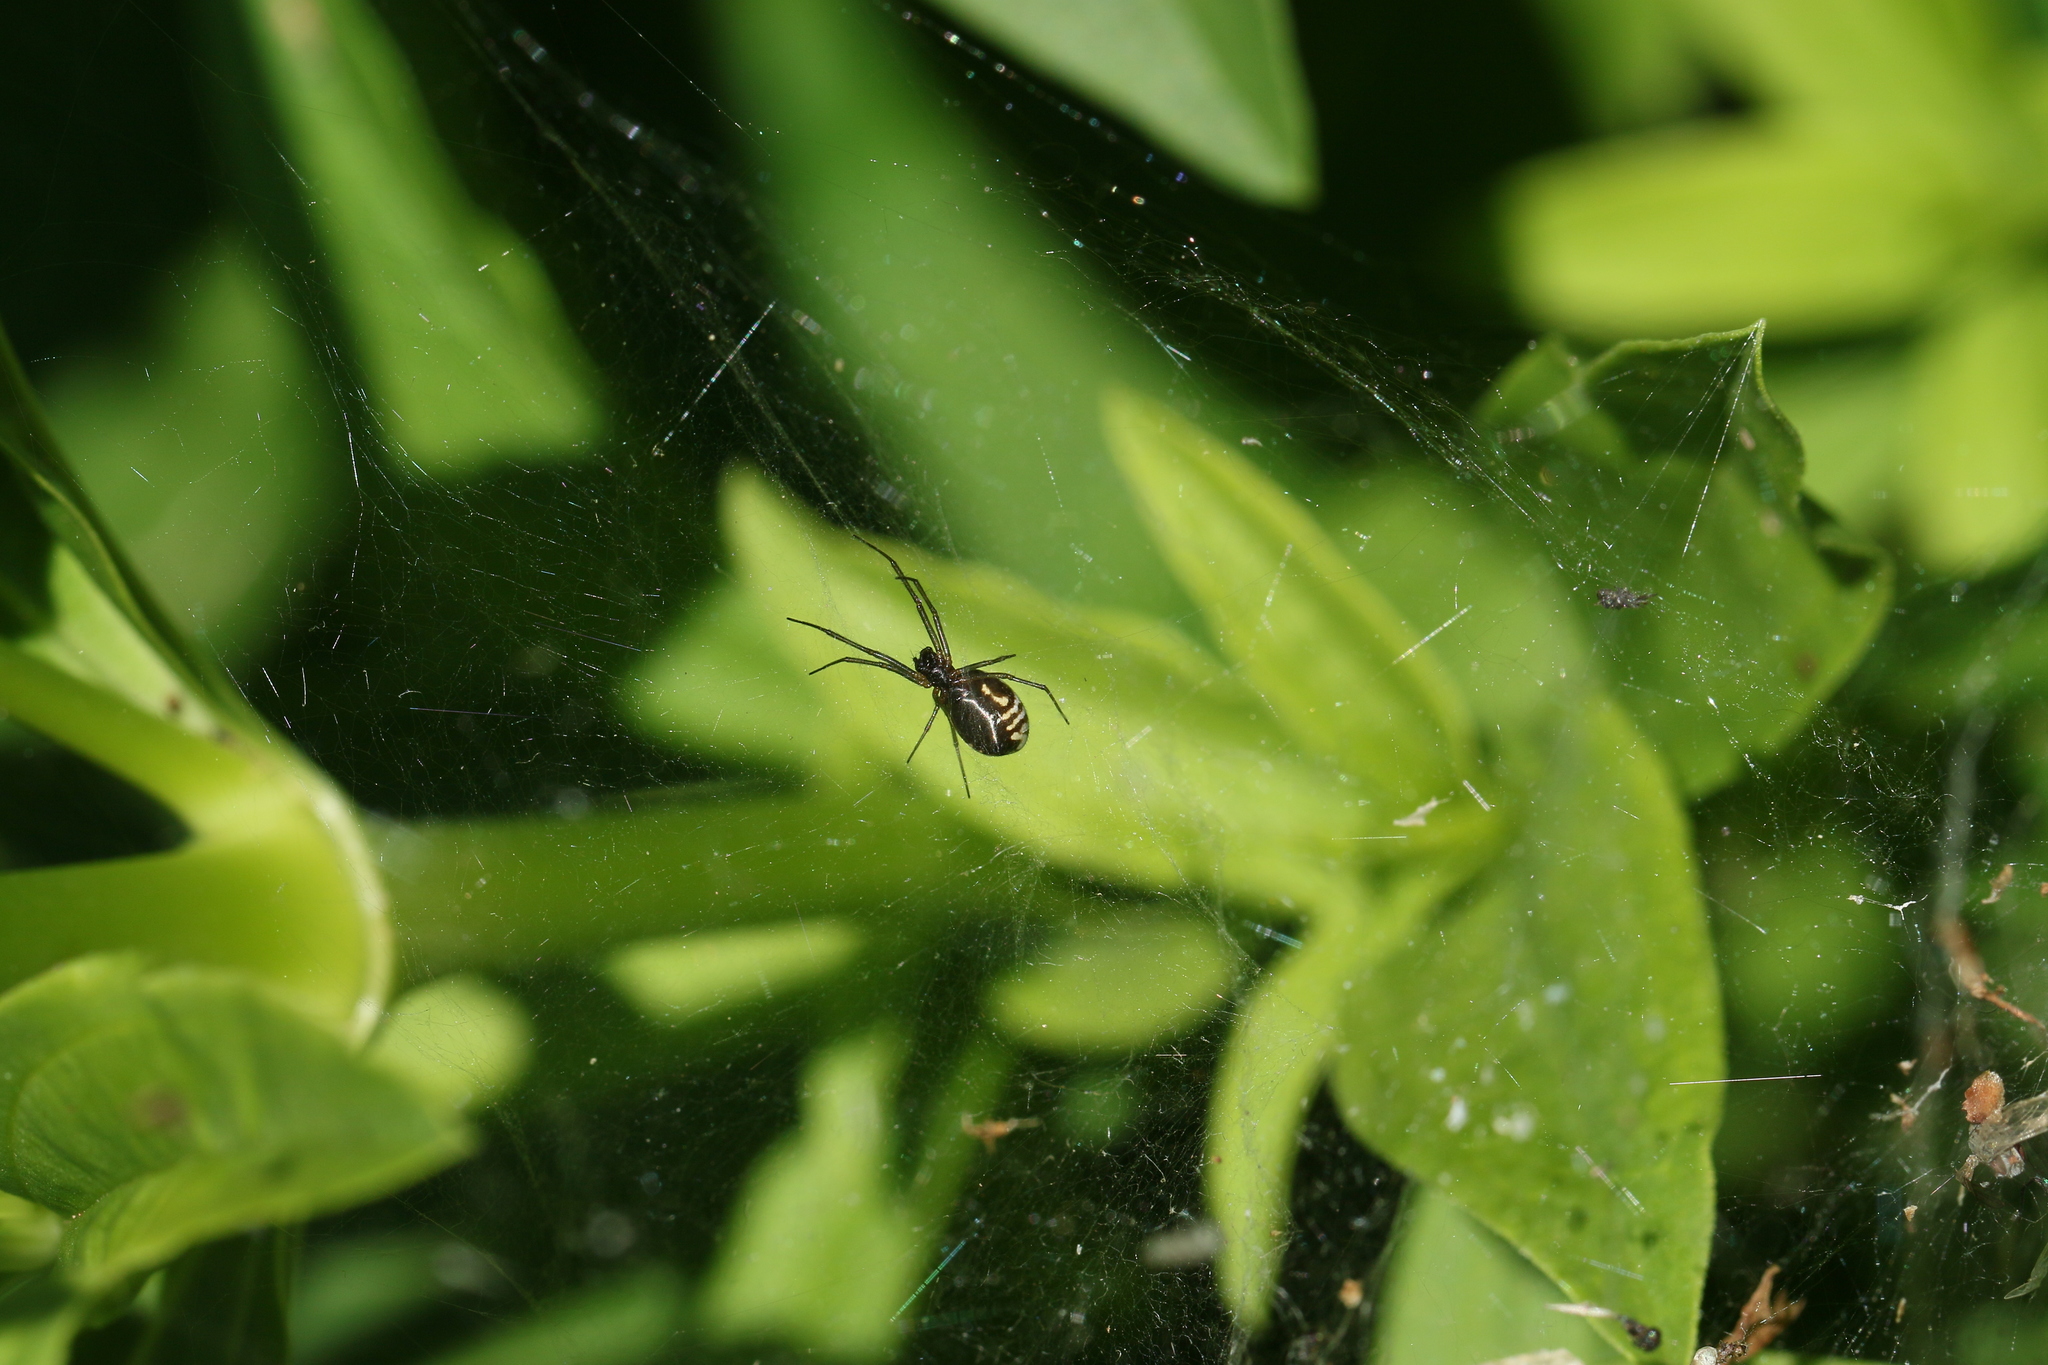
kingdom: Animalia
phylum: Arthropoda
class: Arachnida
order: Araneae
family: Linyphiidae
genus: Frontinella
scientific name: Frontinella pyramitela
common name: Bowl-and-doily spider
